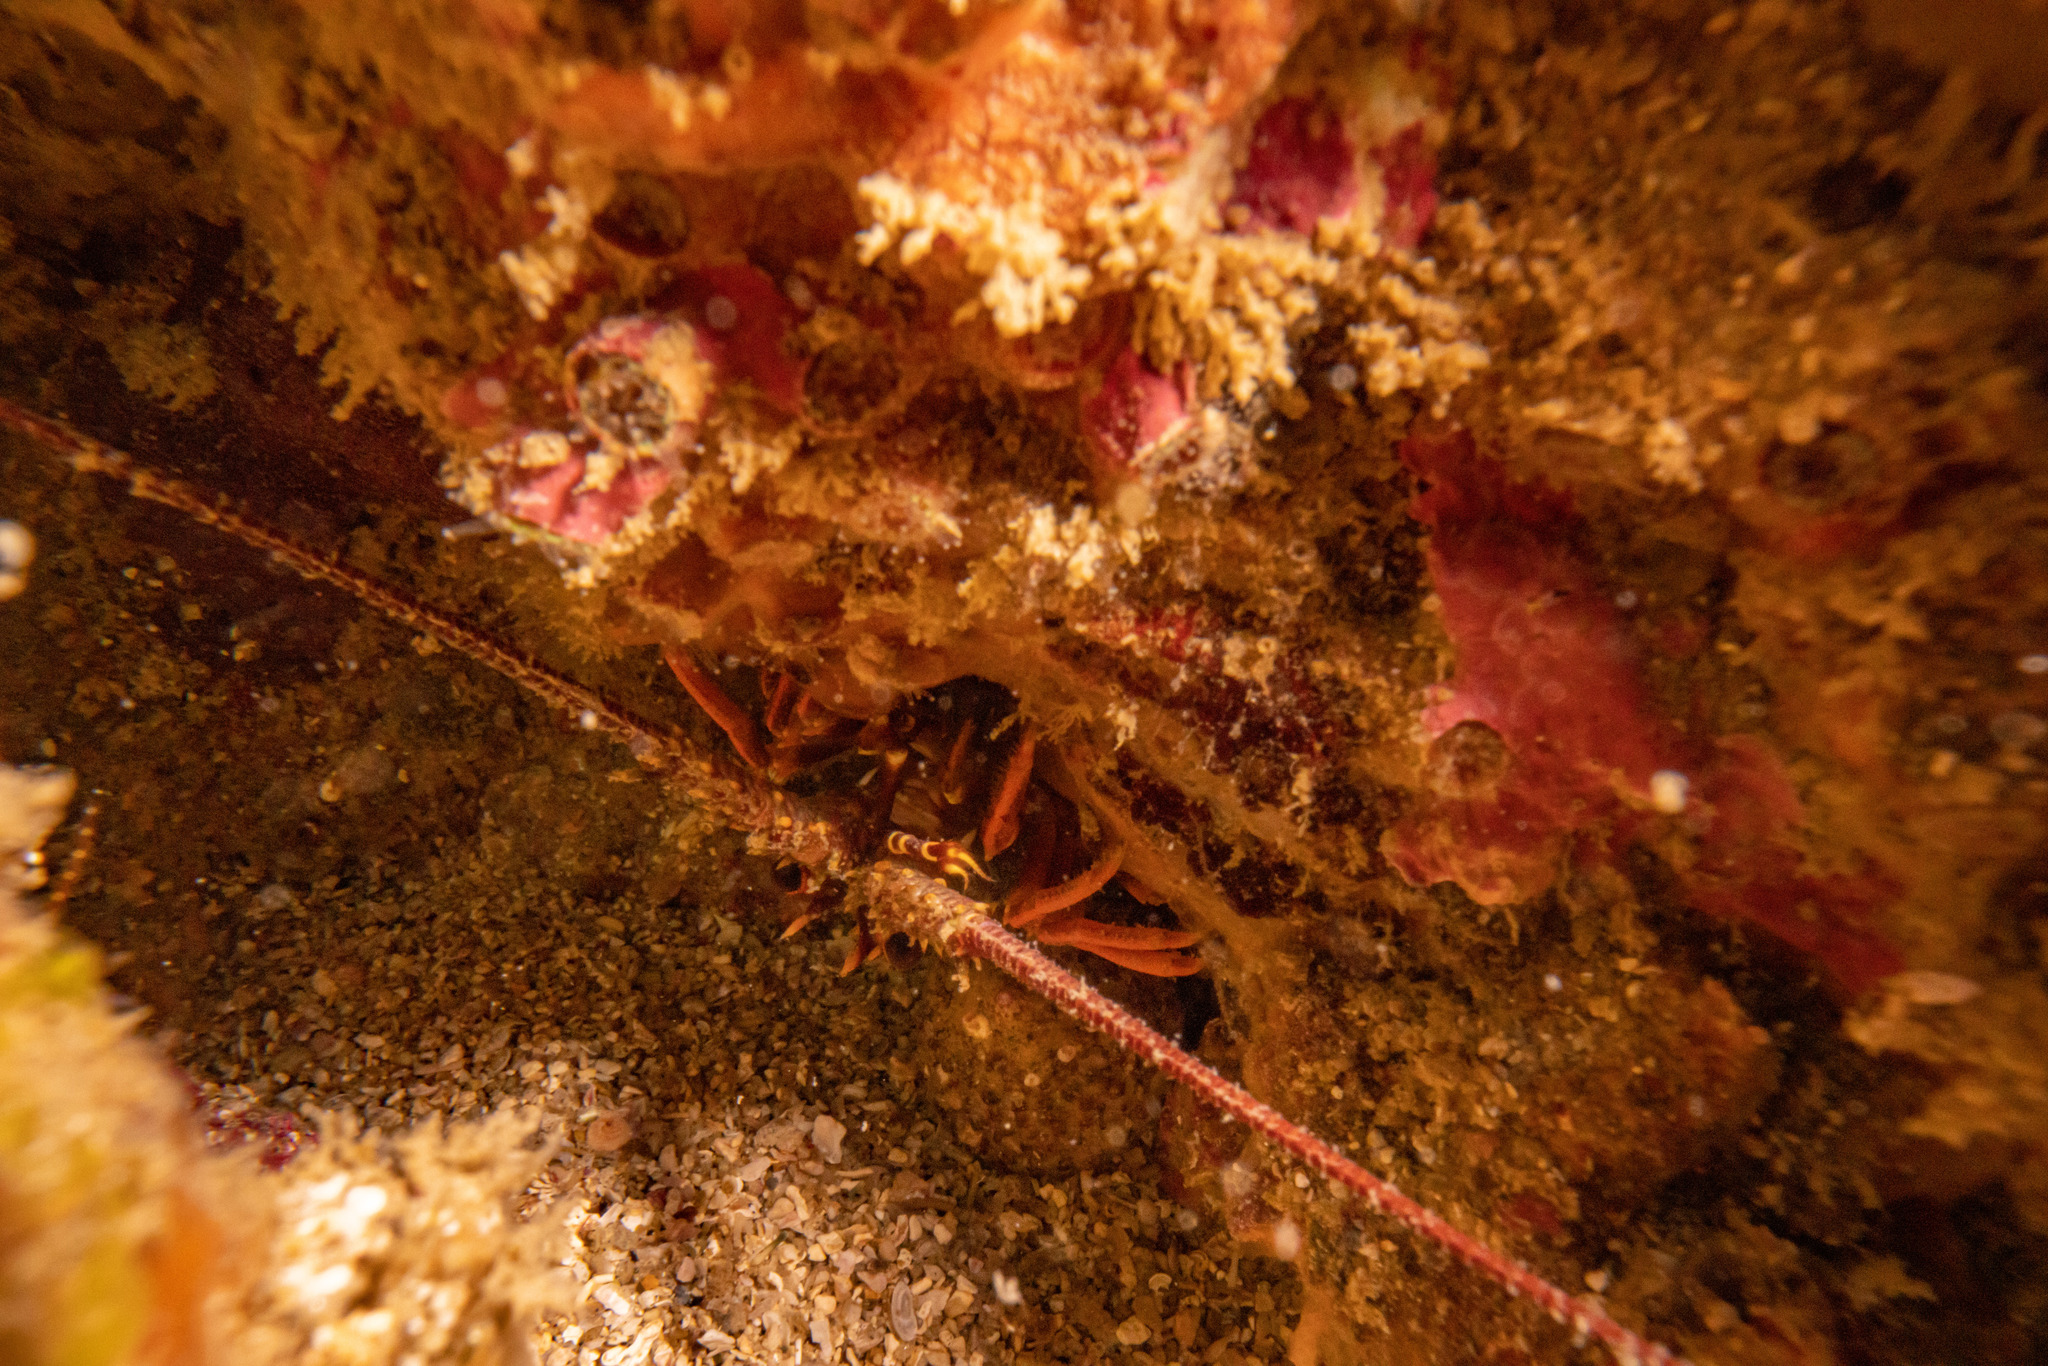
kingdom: Animalia
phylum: Arthropoda
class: Malacostraca
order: Decapoda
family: Palinuridae
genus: Jasus
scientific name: Jasus edwardsii
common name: Red rock lobster
